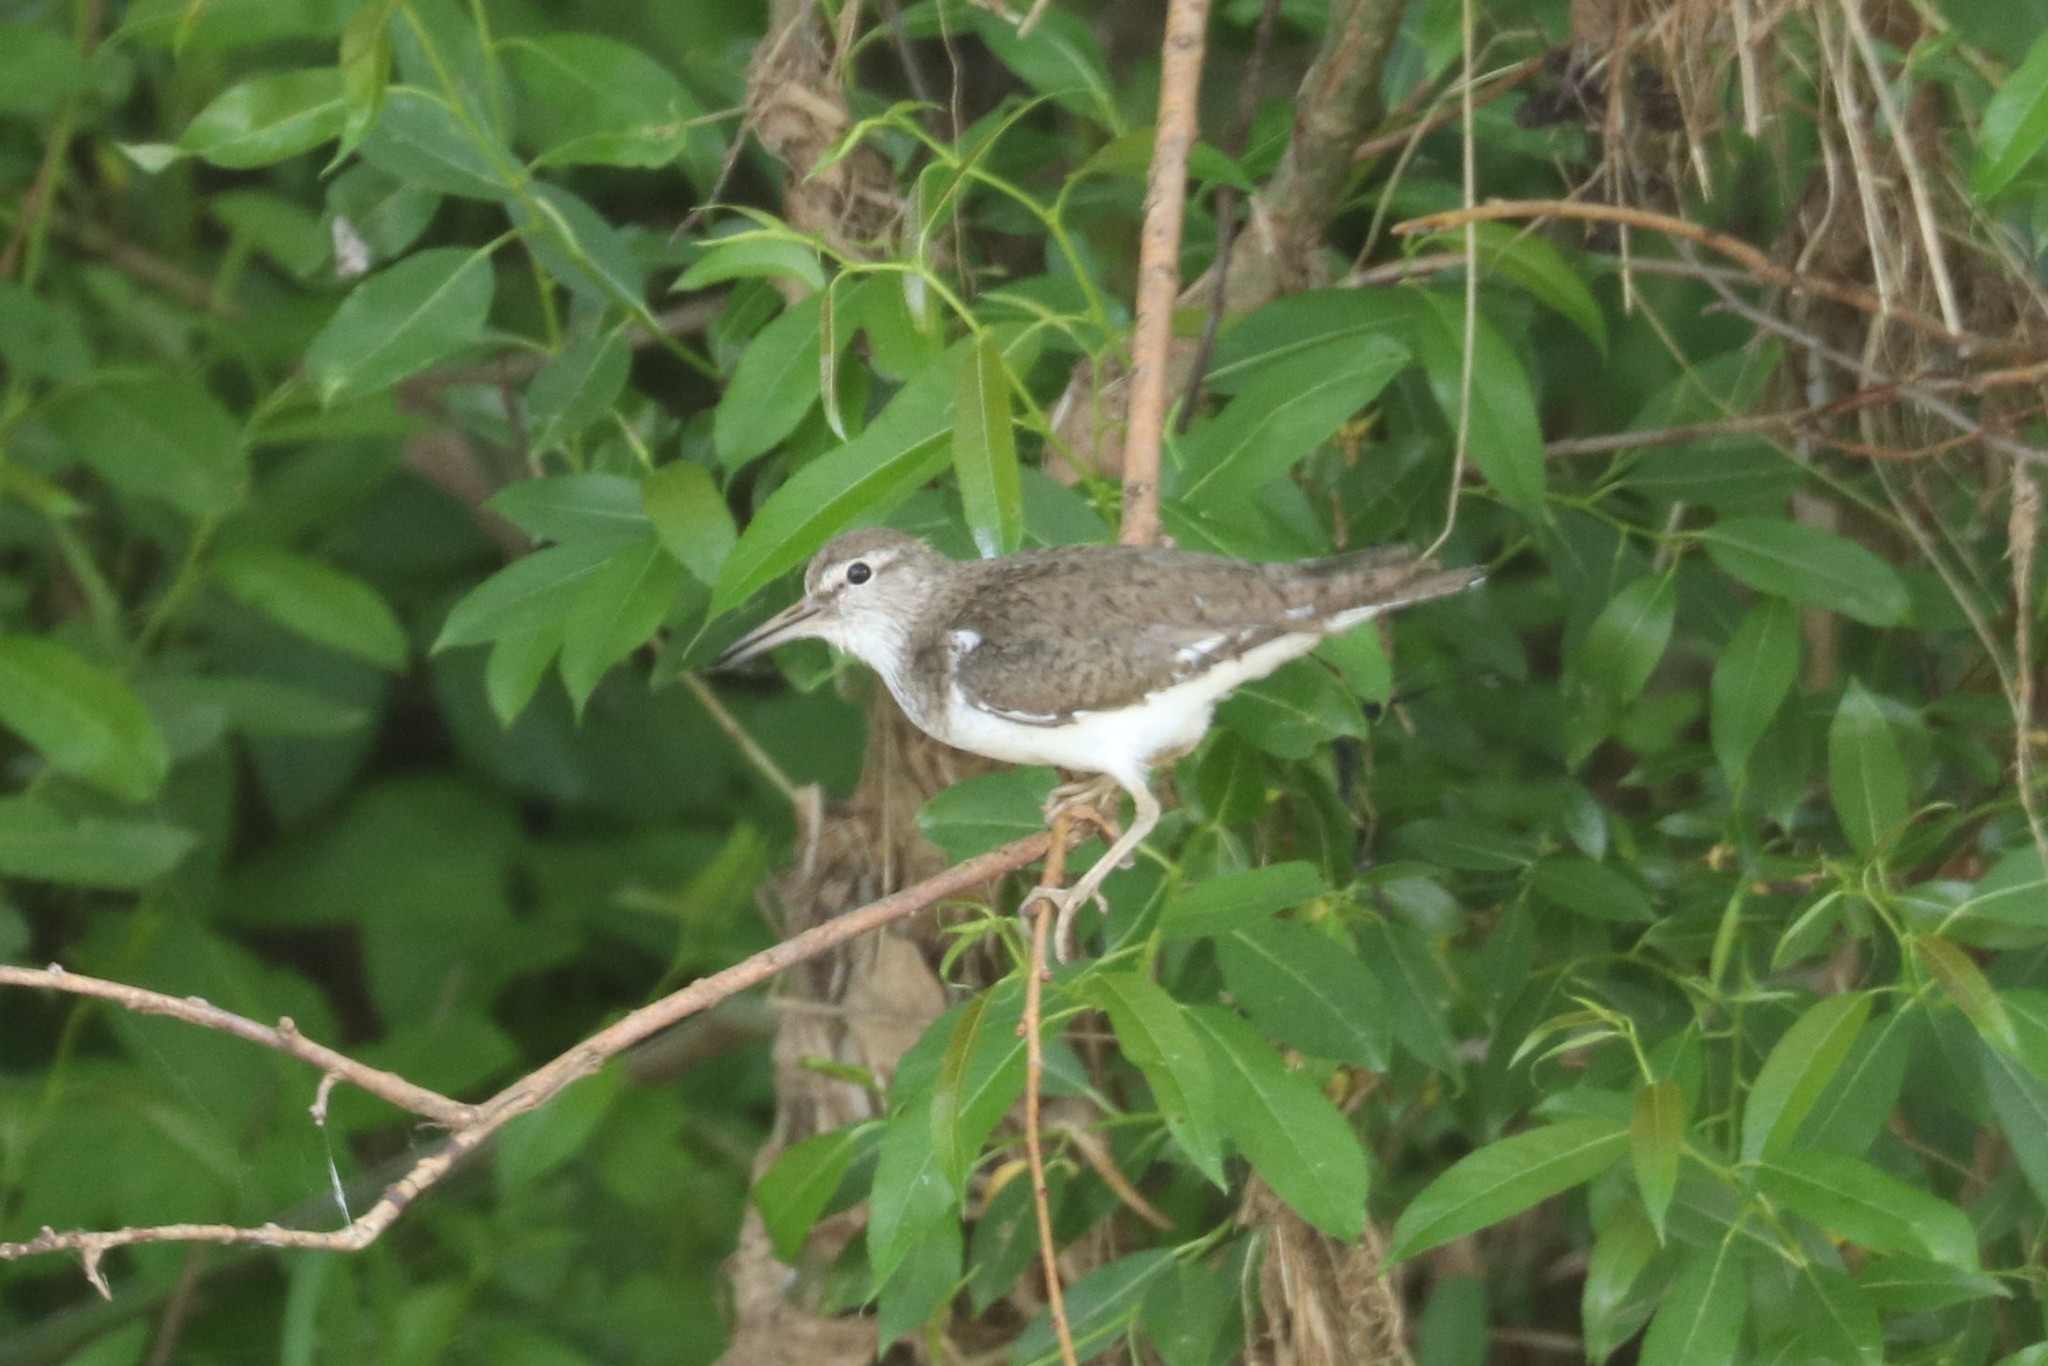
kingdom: Animalia
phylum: Chordata
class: Aves
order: Charadriiformes
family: Scolopacidae
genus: Actitis
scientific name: Actitis hypoleucos
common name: Common sandpiper
